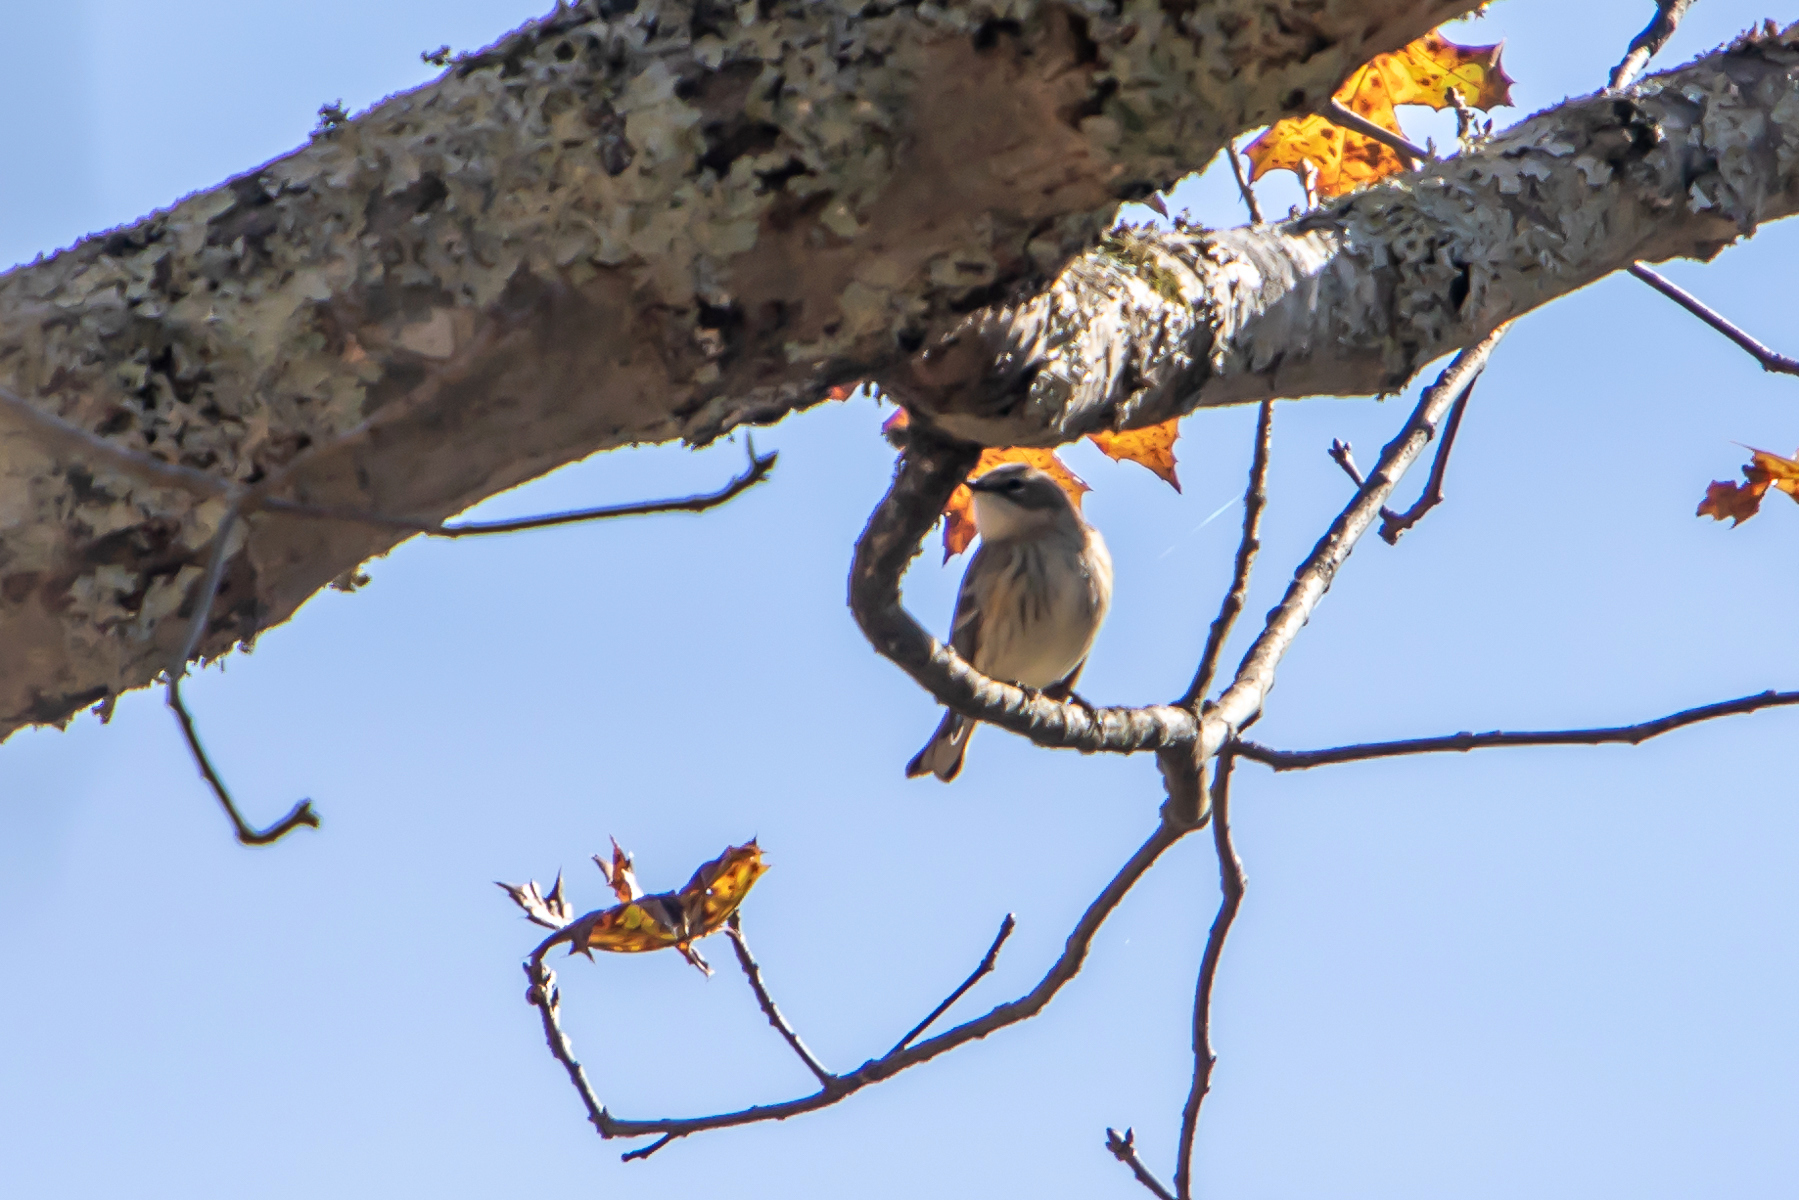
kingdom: Animalia
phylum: Chordata
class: Aves
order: Passeriformes
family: Parulidae
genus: Setophaga
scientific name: Setophaga coronata
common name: Myrtle warbler
